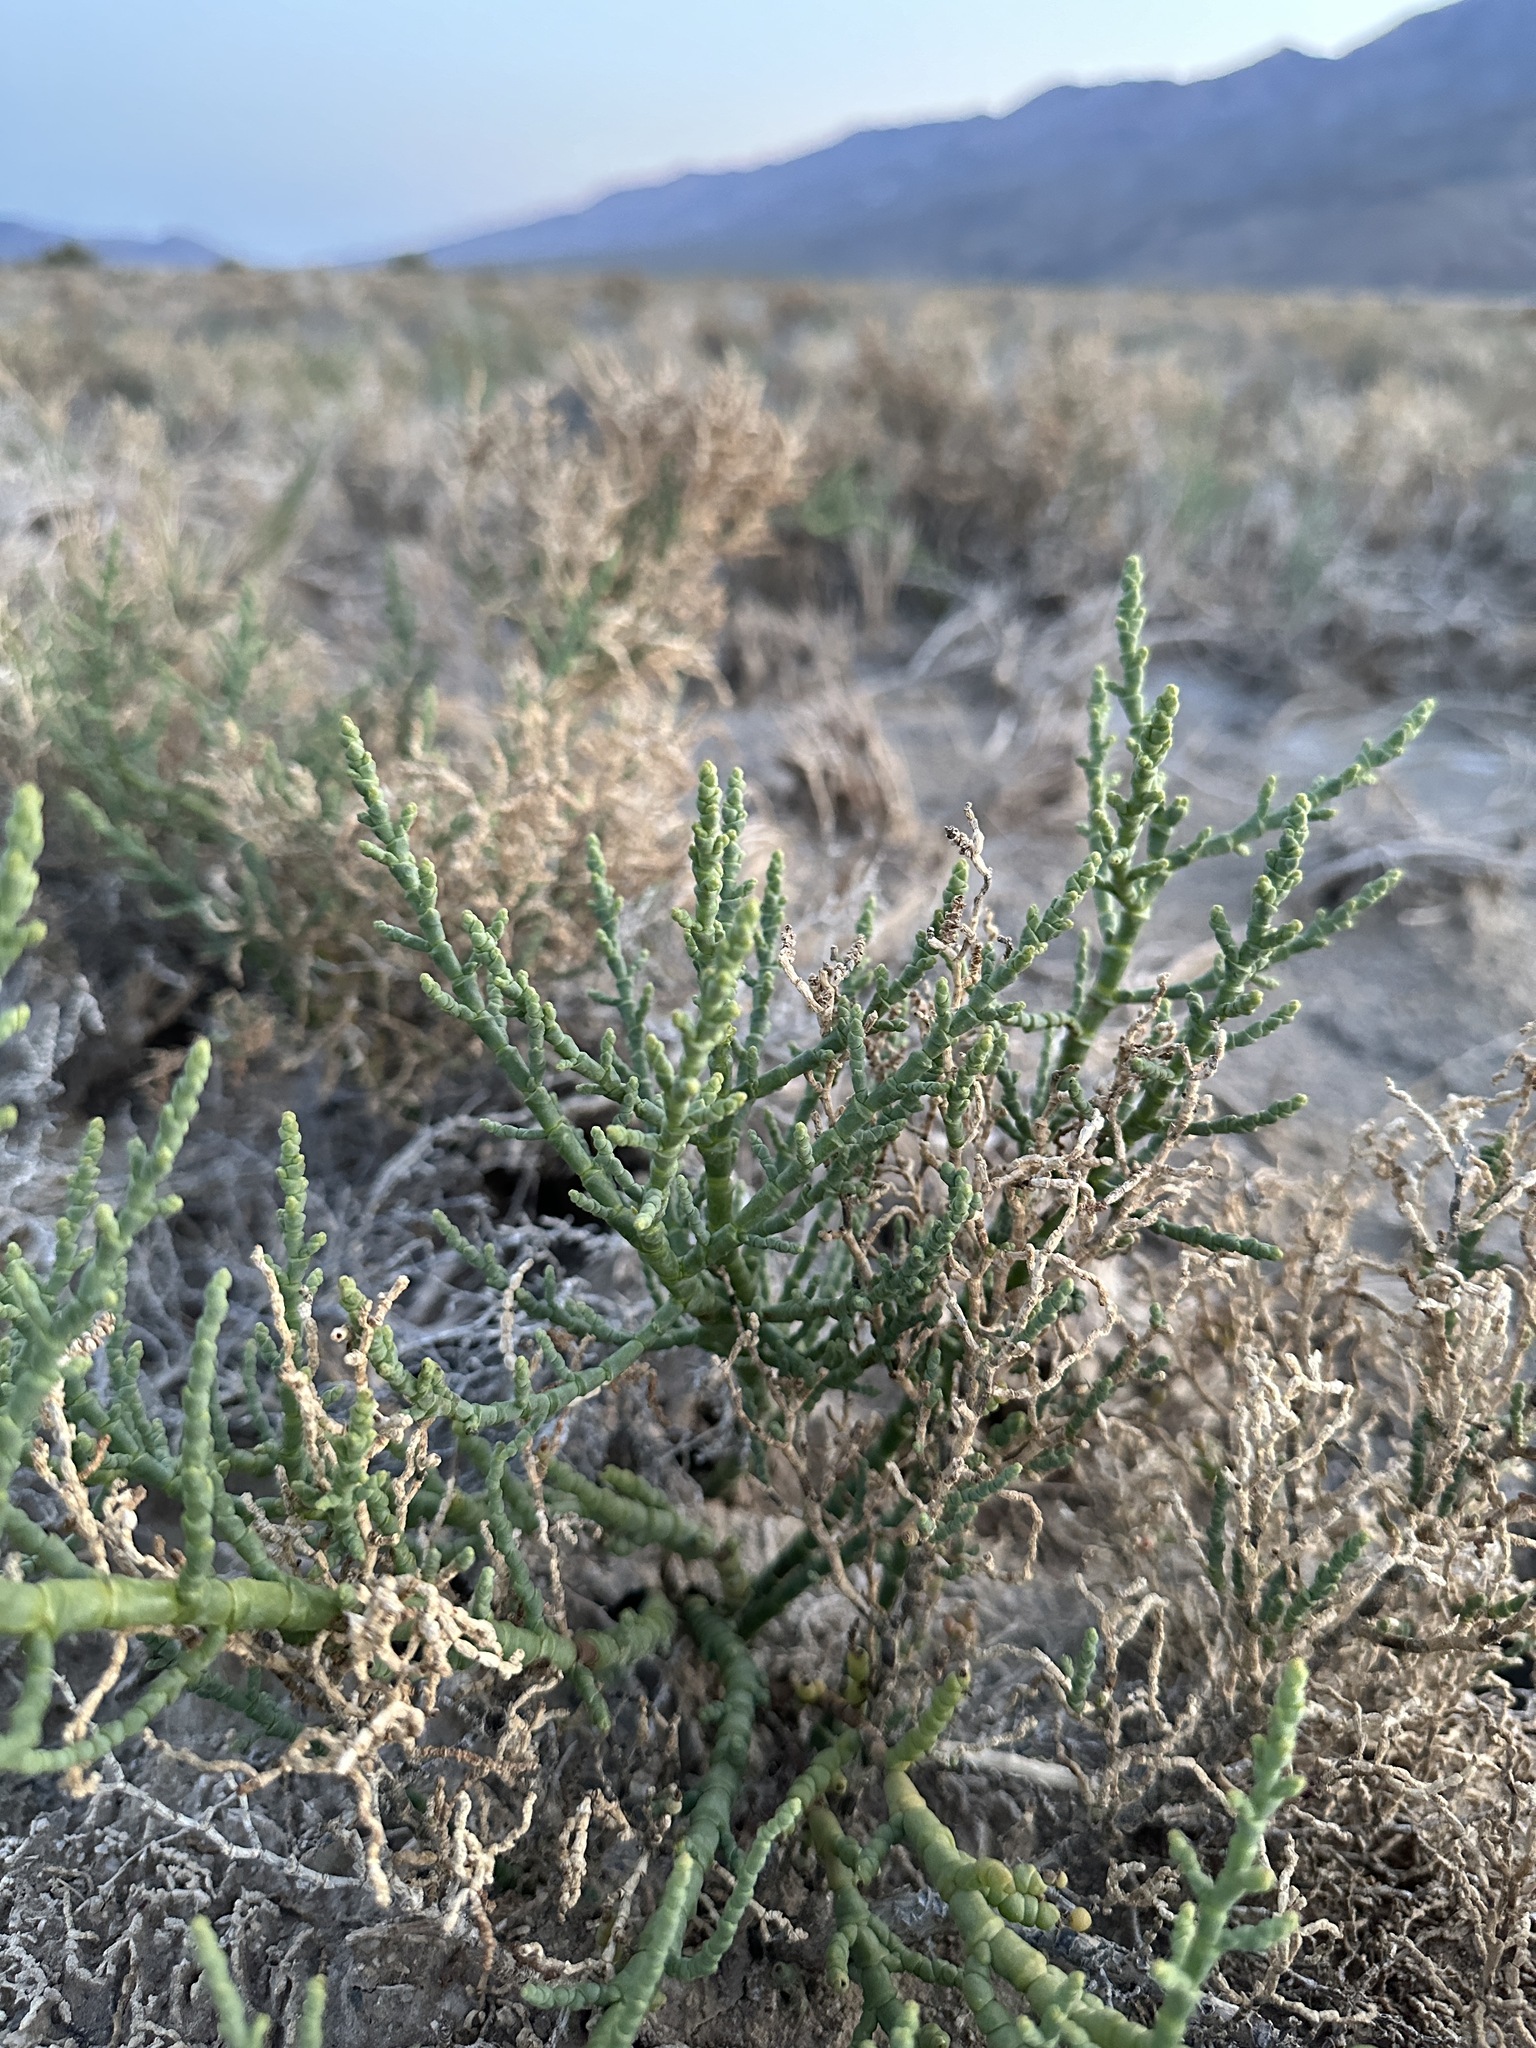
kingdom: Plantae
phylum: Tracheophyta
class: Magnoliopsida
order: Caryophyllales
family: Amaranthaceae
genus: Allenrolfea
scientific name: Allenrolfea occidentalis
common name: Iodine-bush
